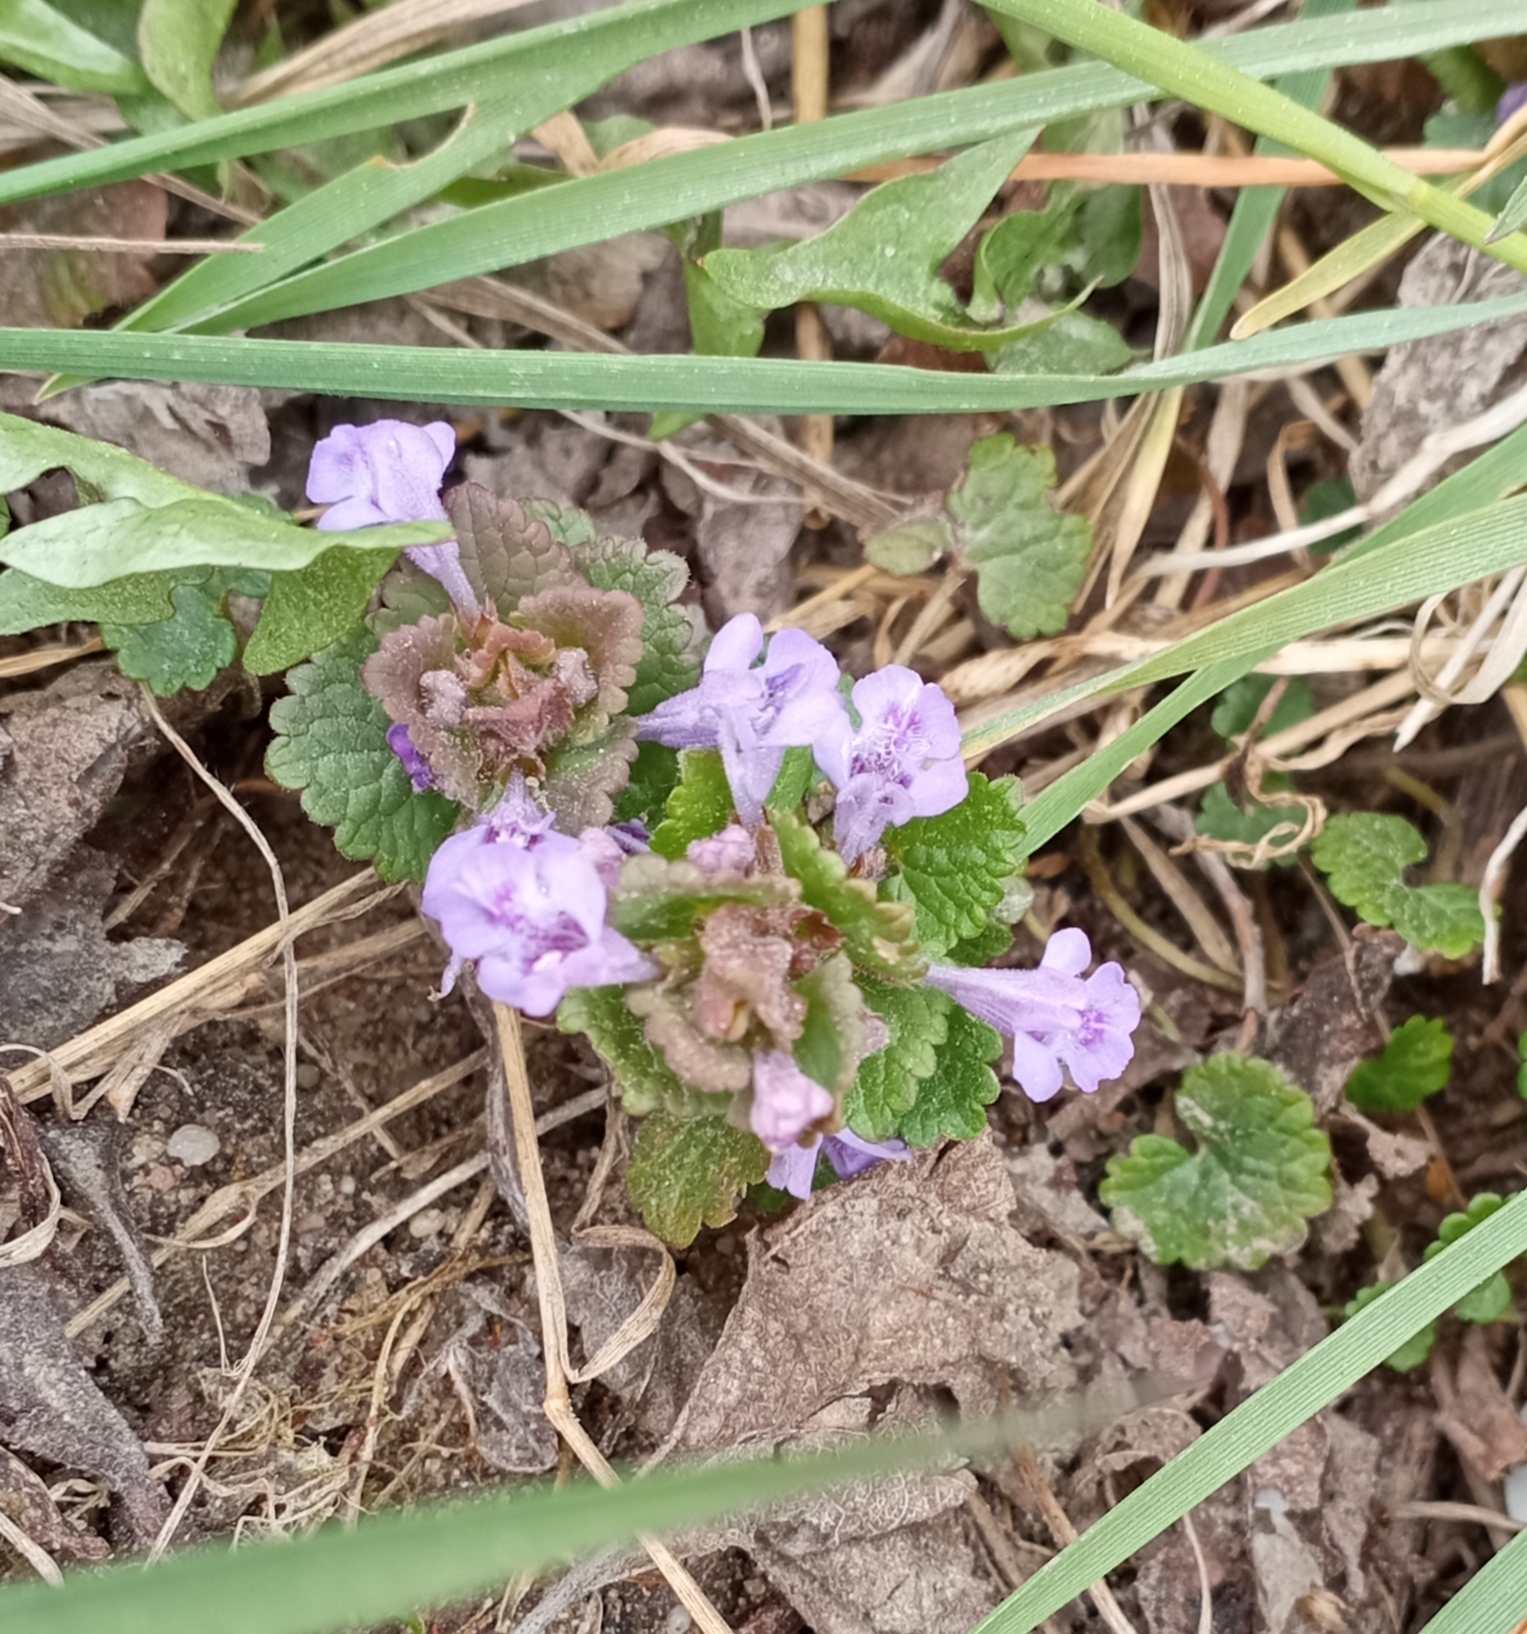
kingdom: Plantae
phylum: Tracheophyta
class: Magnoliopsida
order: Lamiales
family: Lamiaceae
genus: Glechoma
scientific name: Glechoma hederacea
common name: Ground ivy
